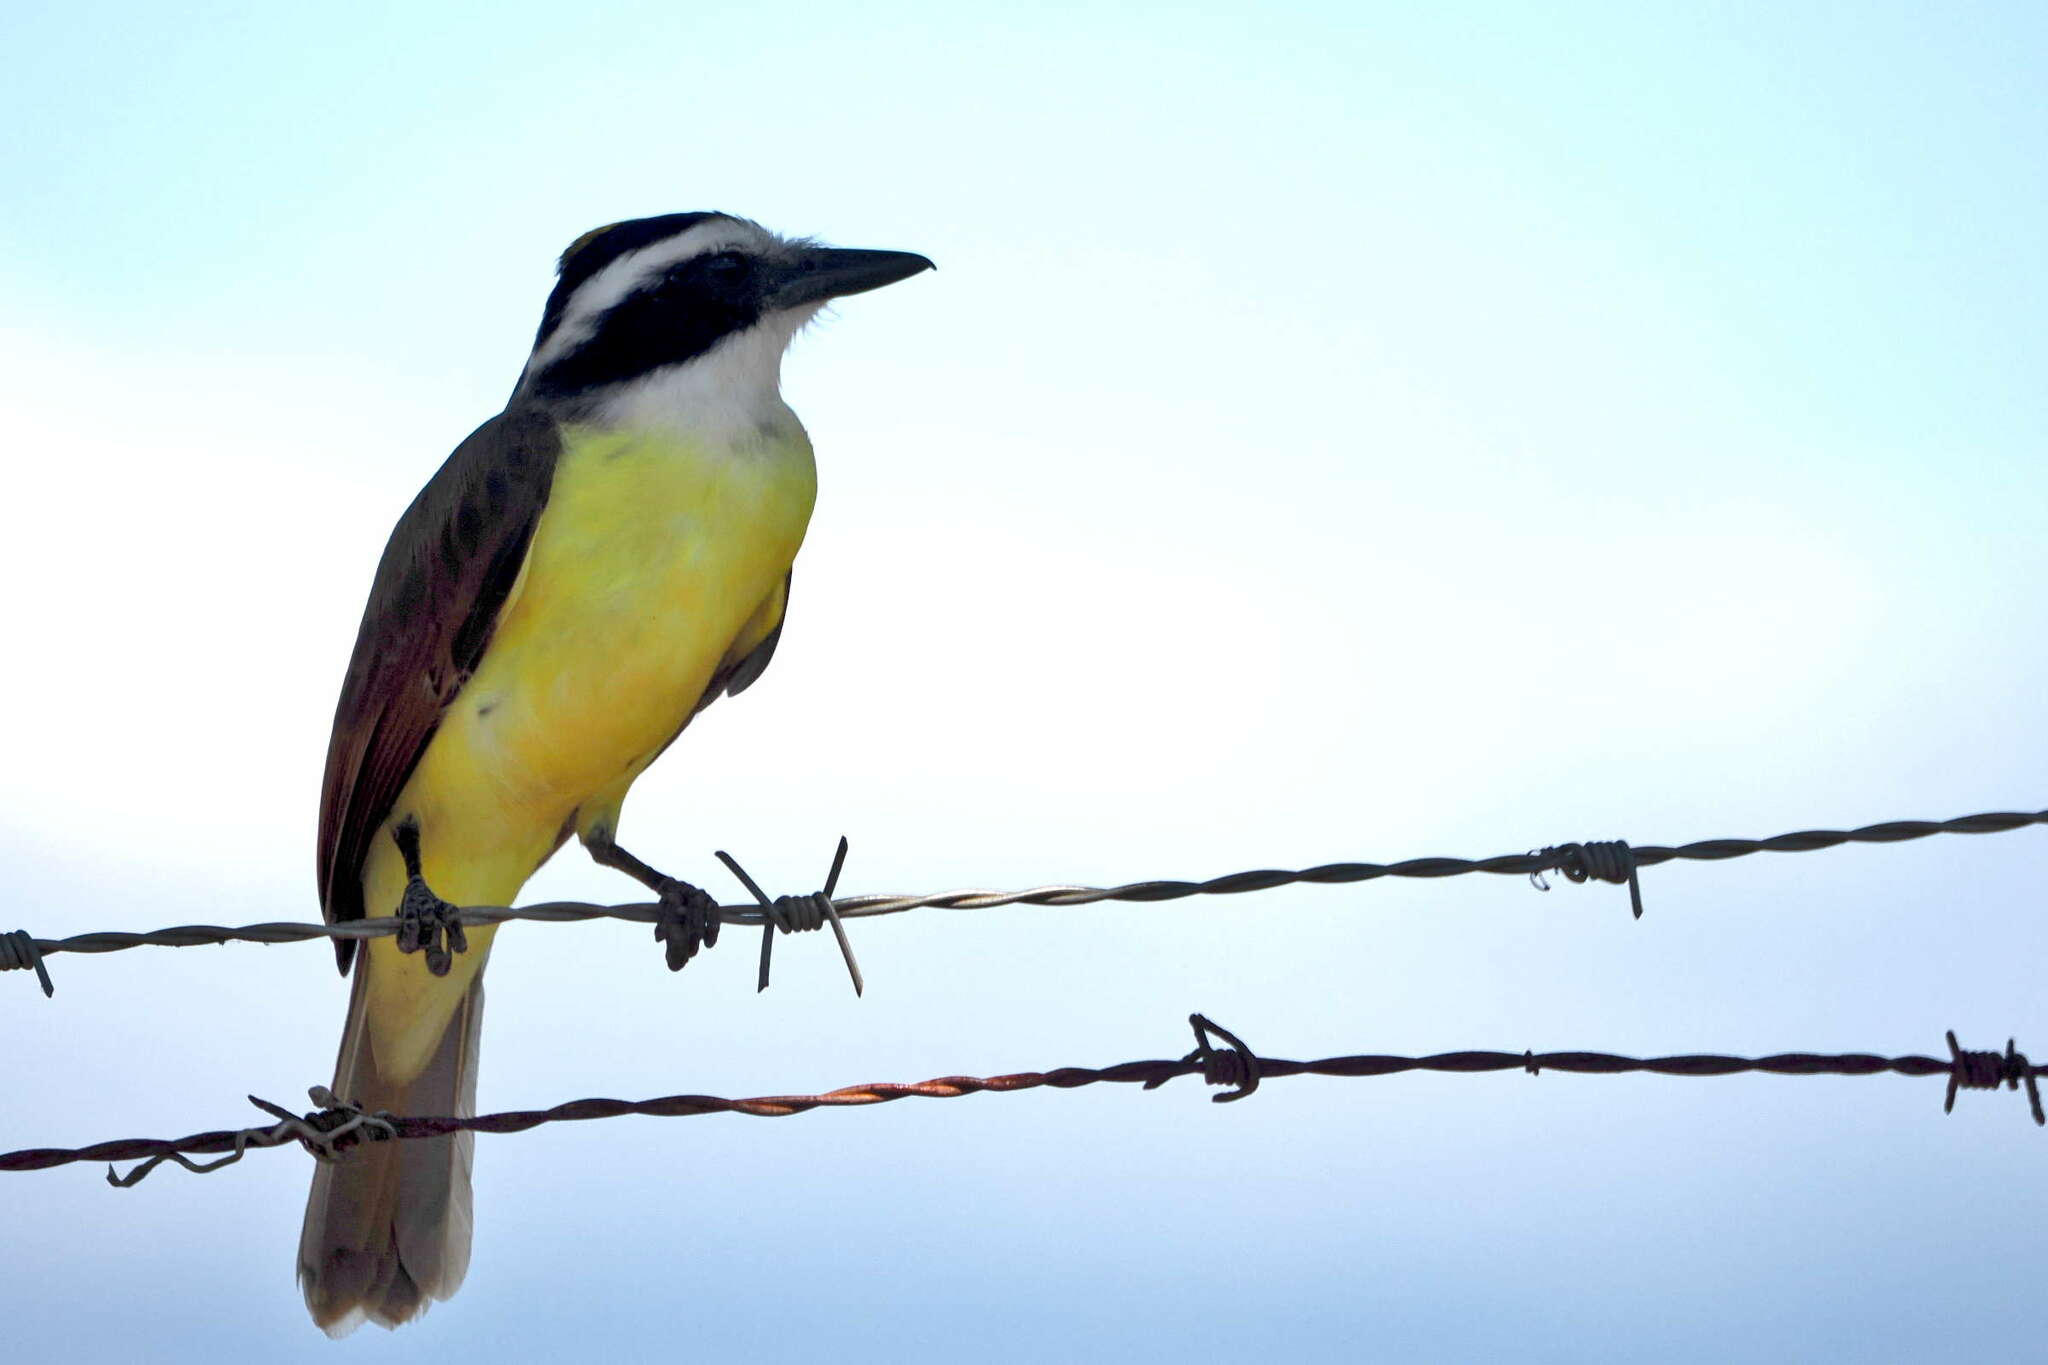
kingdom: Animalia
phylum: Chordata
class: Aves
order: Passeriformes
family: Tyrannidae
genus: Pitangus
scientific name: Pitangus sulphuratus
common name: Great kiskadee
